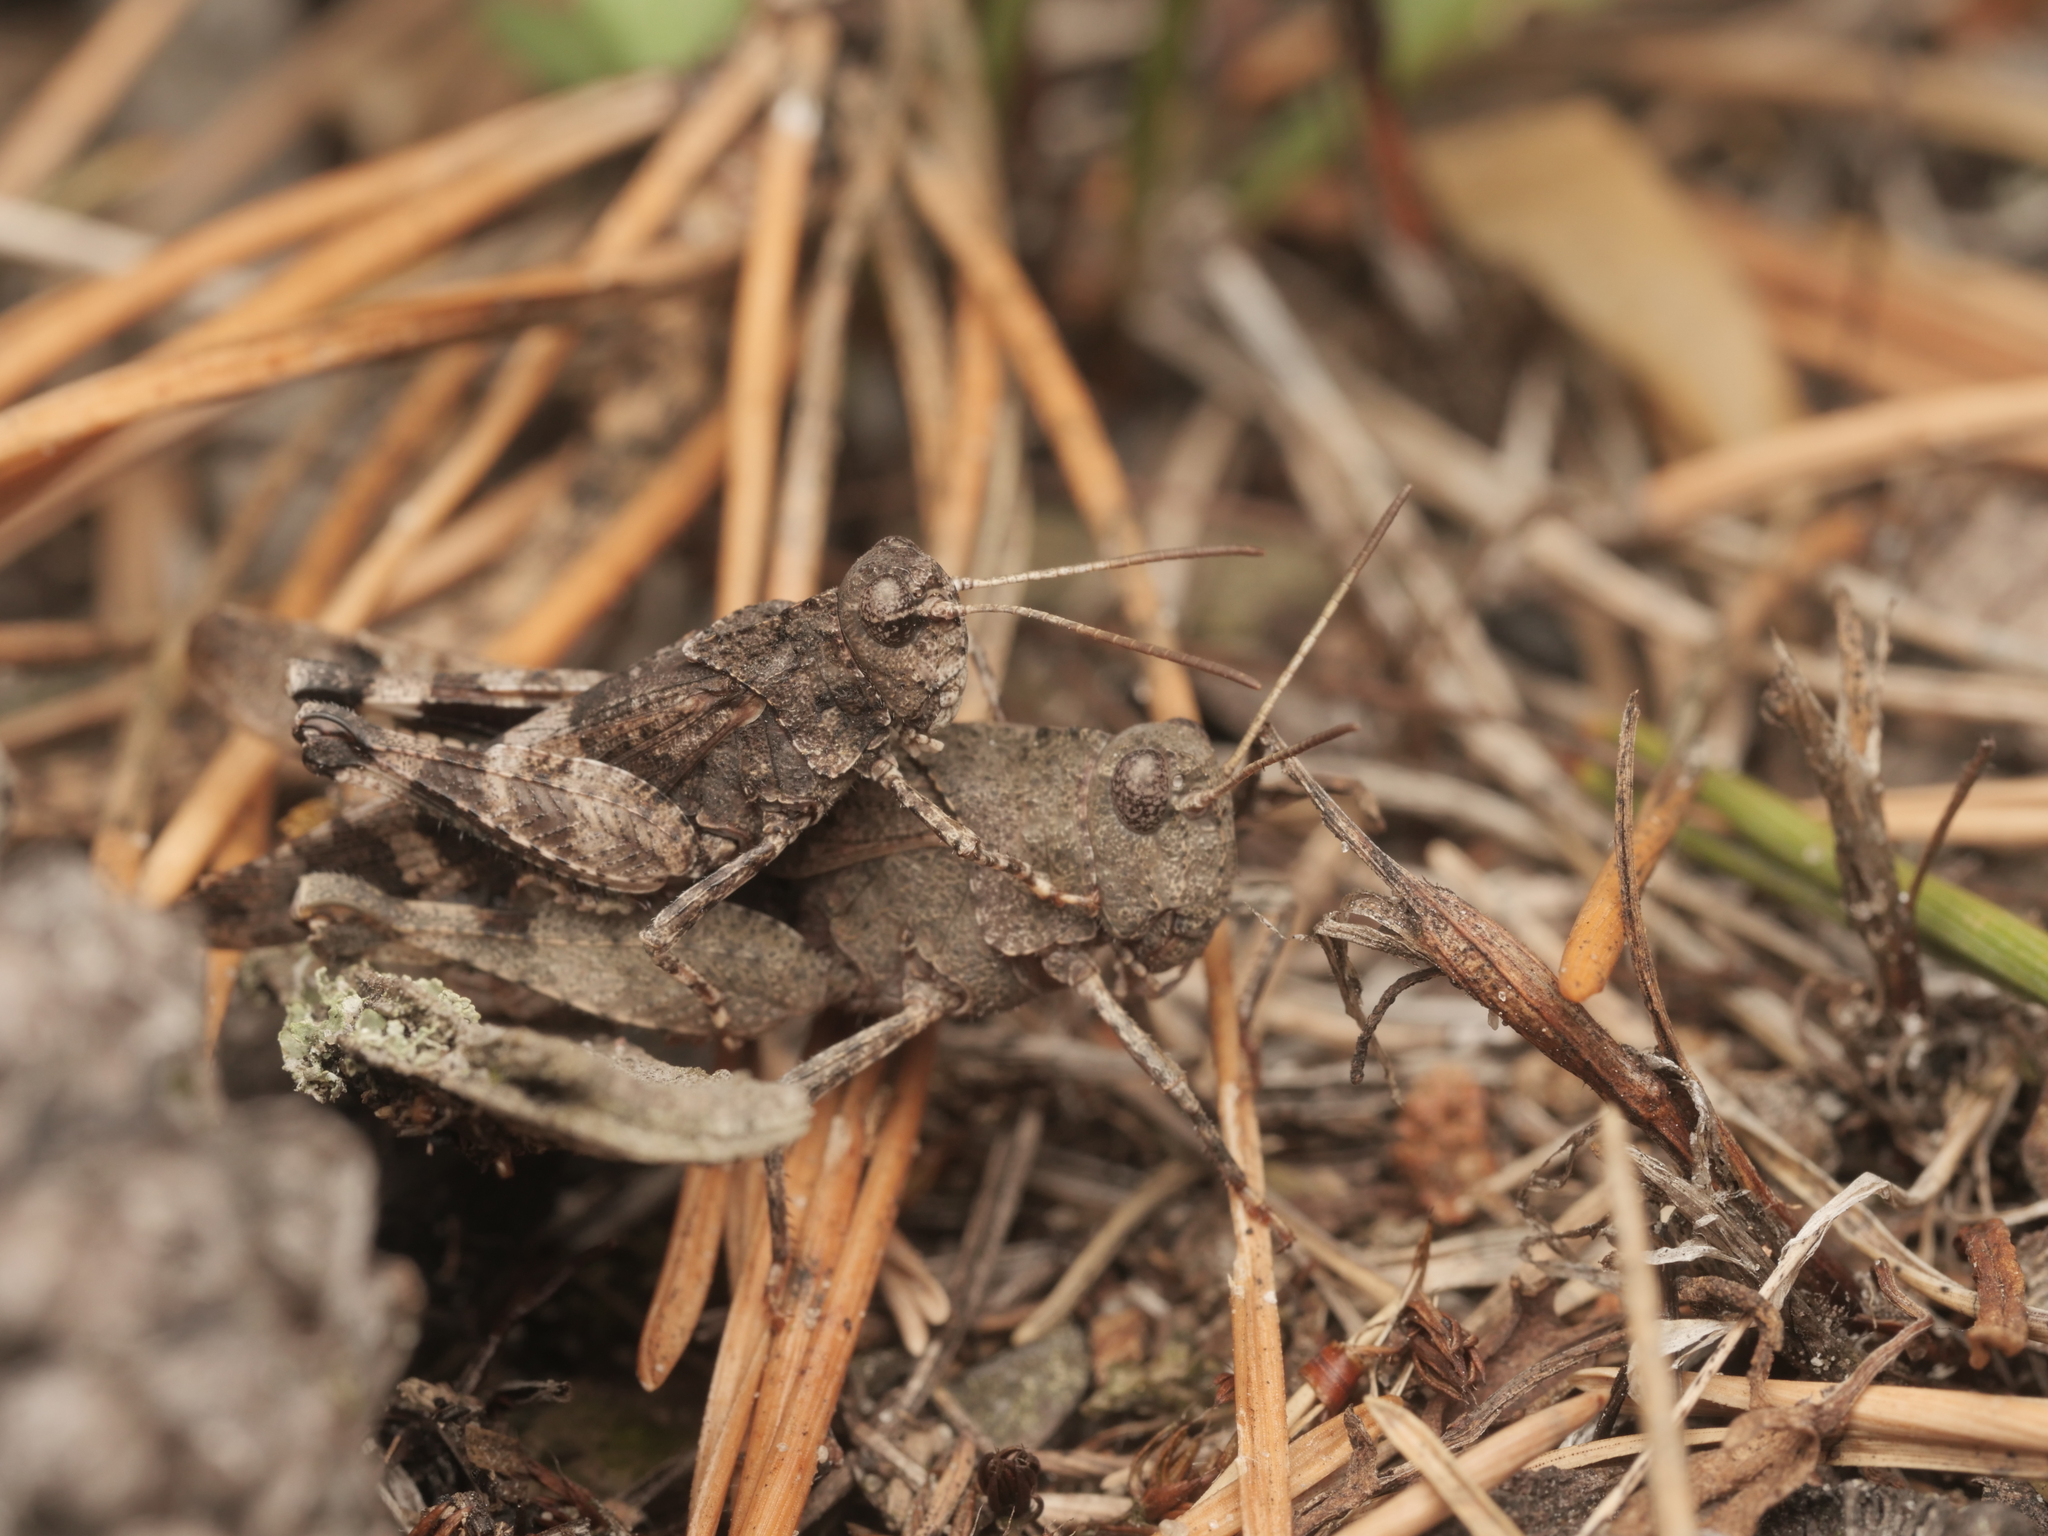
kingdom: Animalia
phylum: Arthropoda
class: Insecta
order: Orthoptera
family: Acrididae
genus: Oedipoda
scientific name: Oedipoda caerulescens
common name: Blue-winged grasshopper
